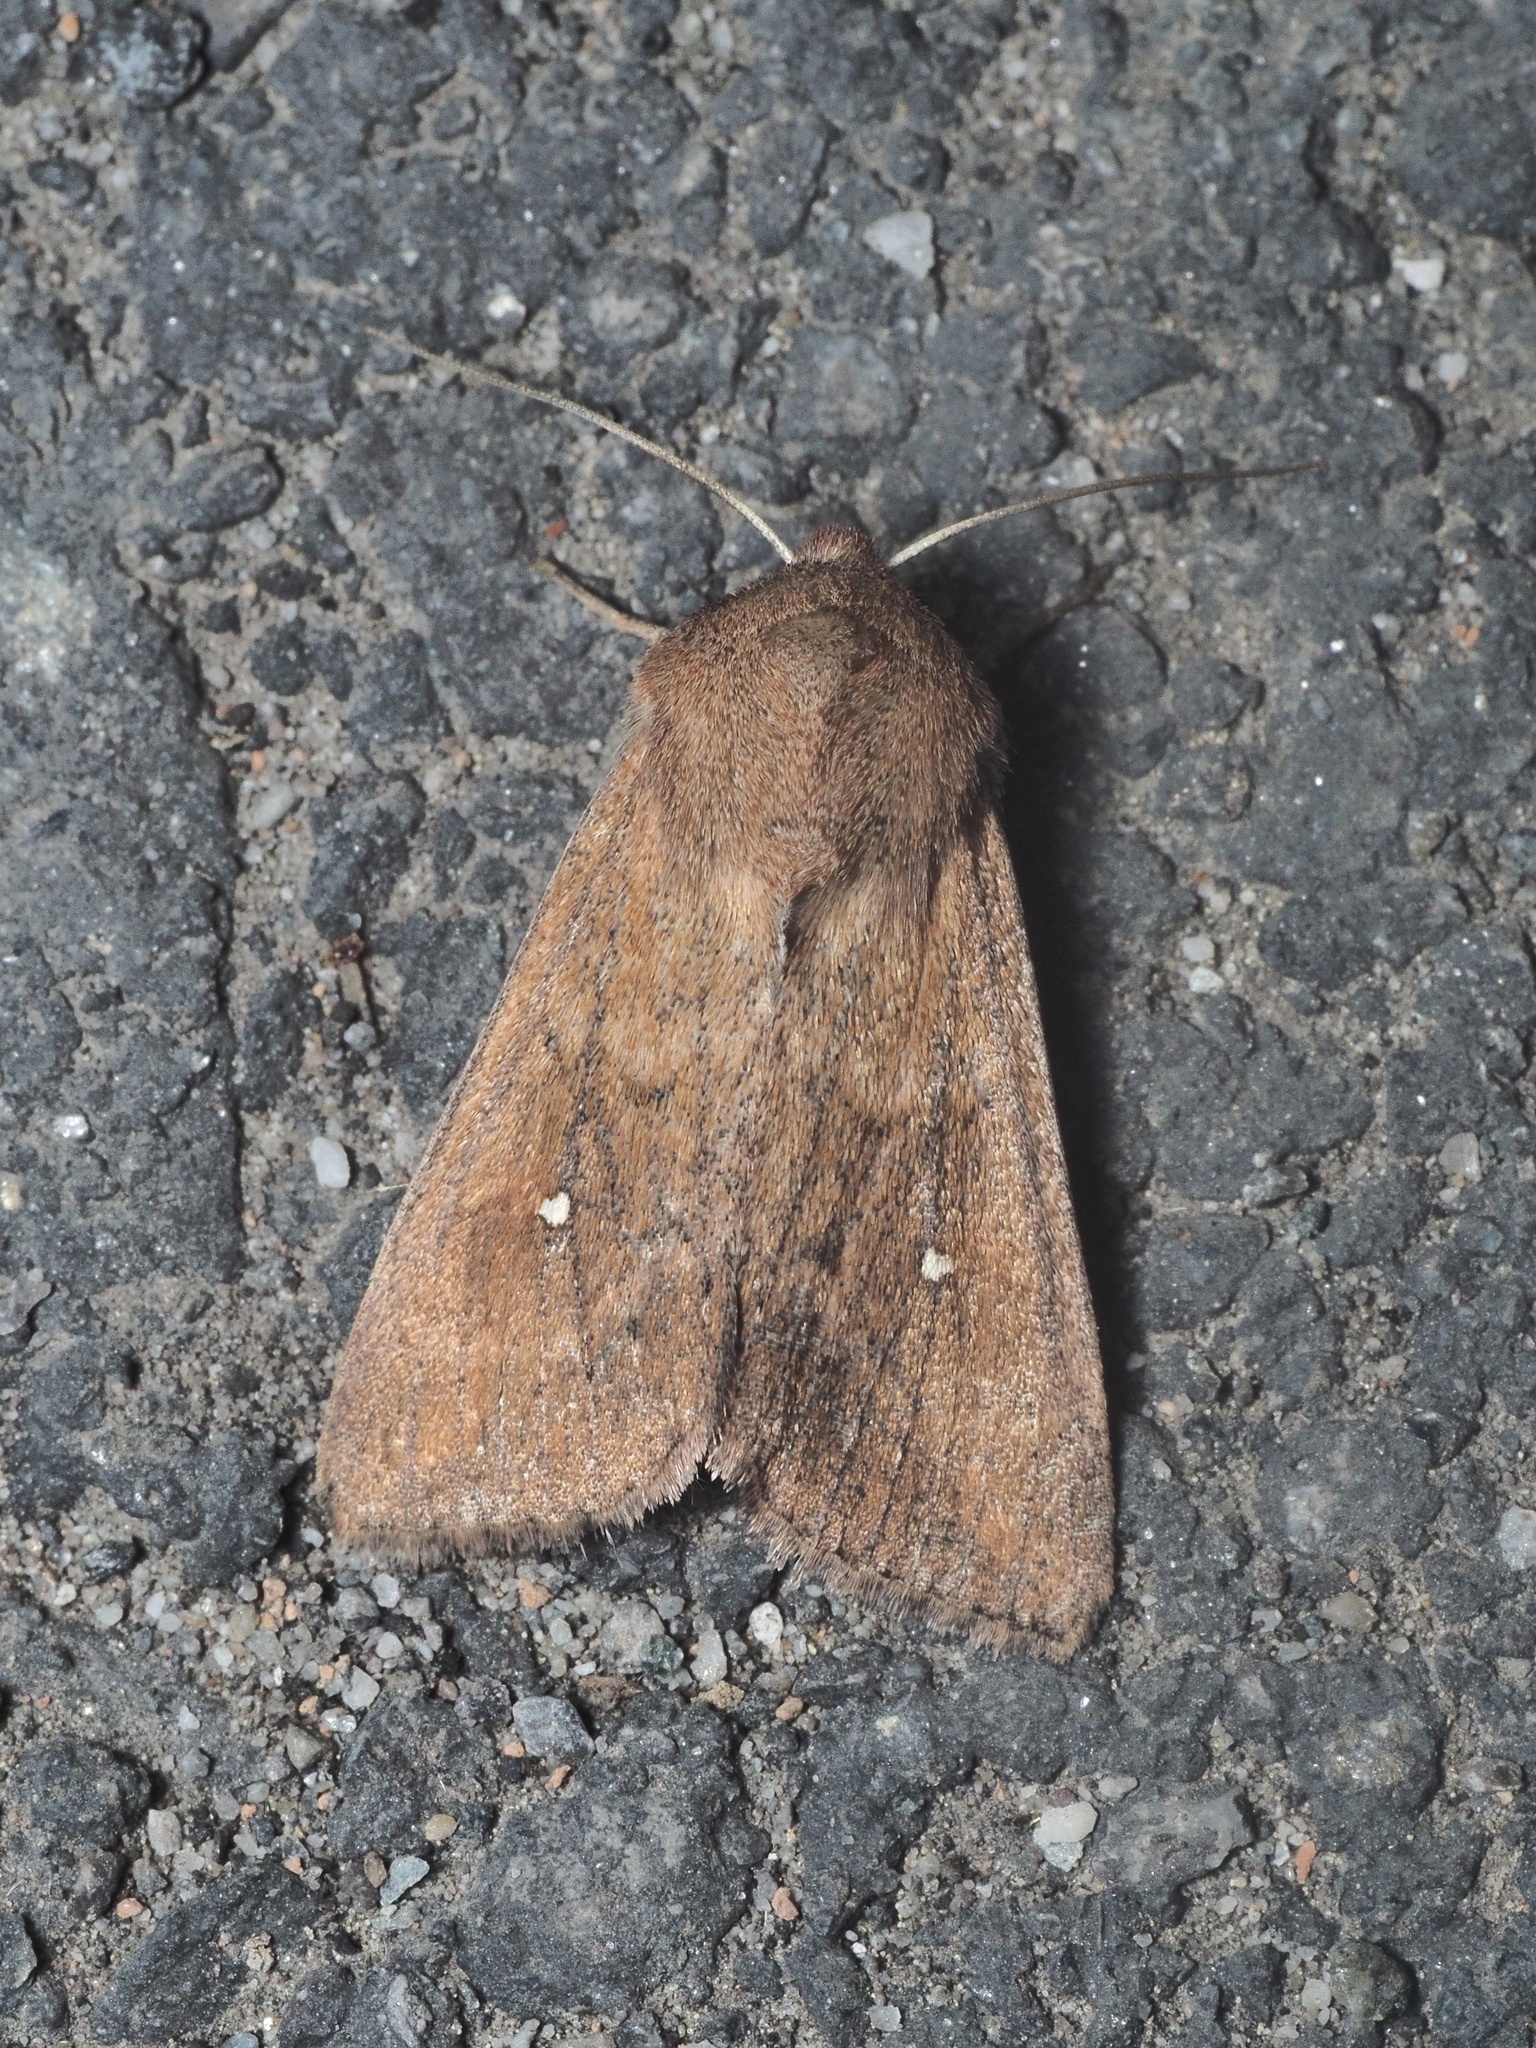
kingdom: Animalia
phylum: Arthropoda
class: Insecta
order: Lepidoptera
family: Noctuidae
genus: Mythimna
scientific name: Mythimna albipuncta
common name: White-point
